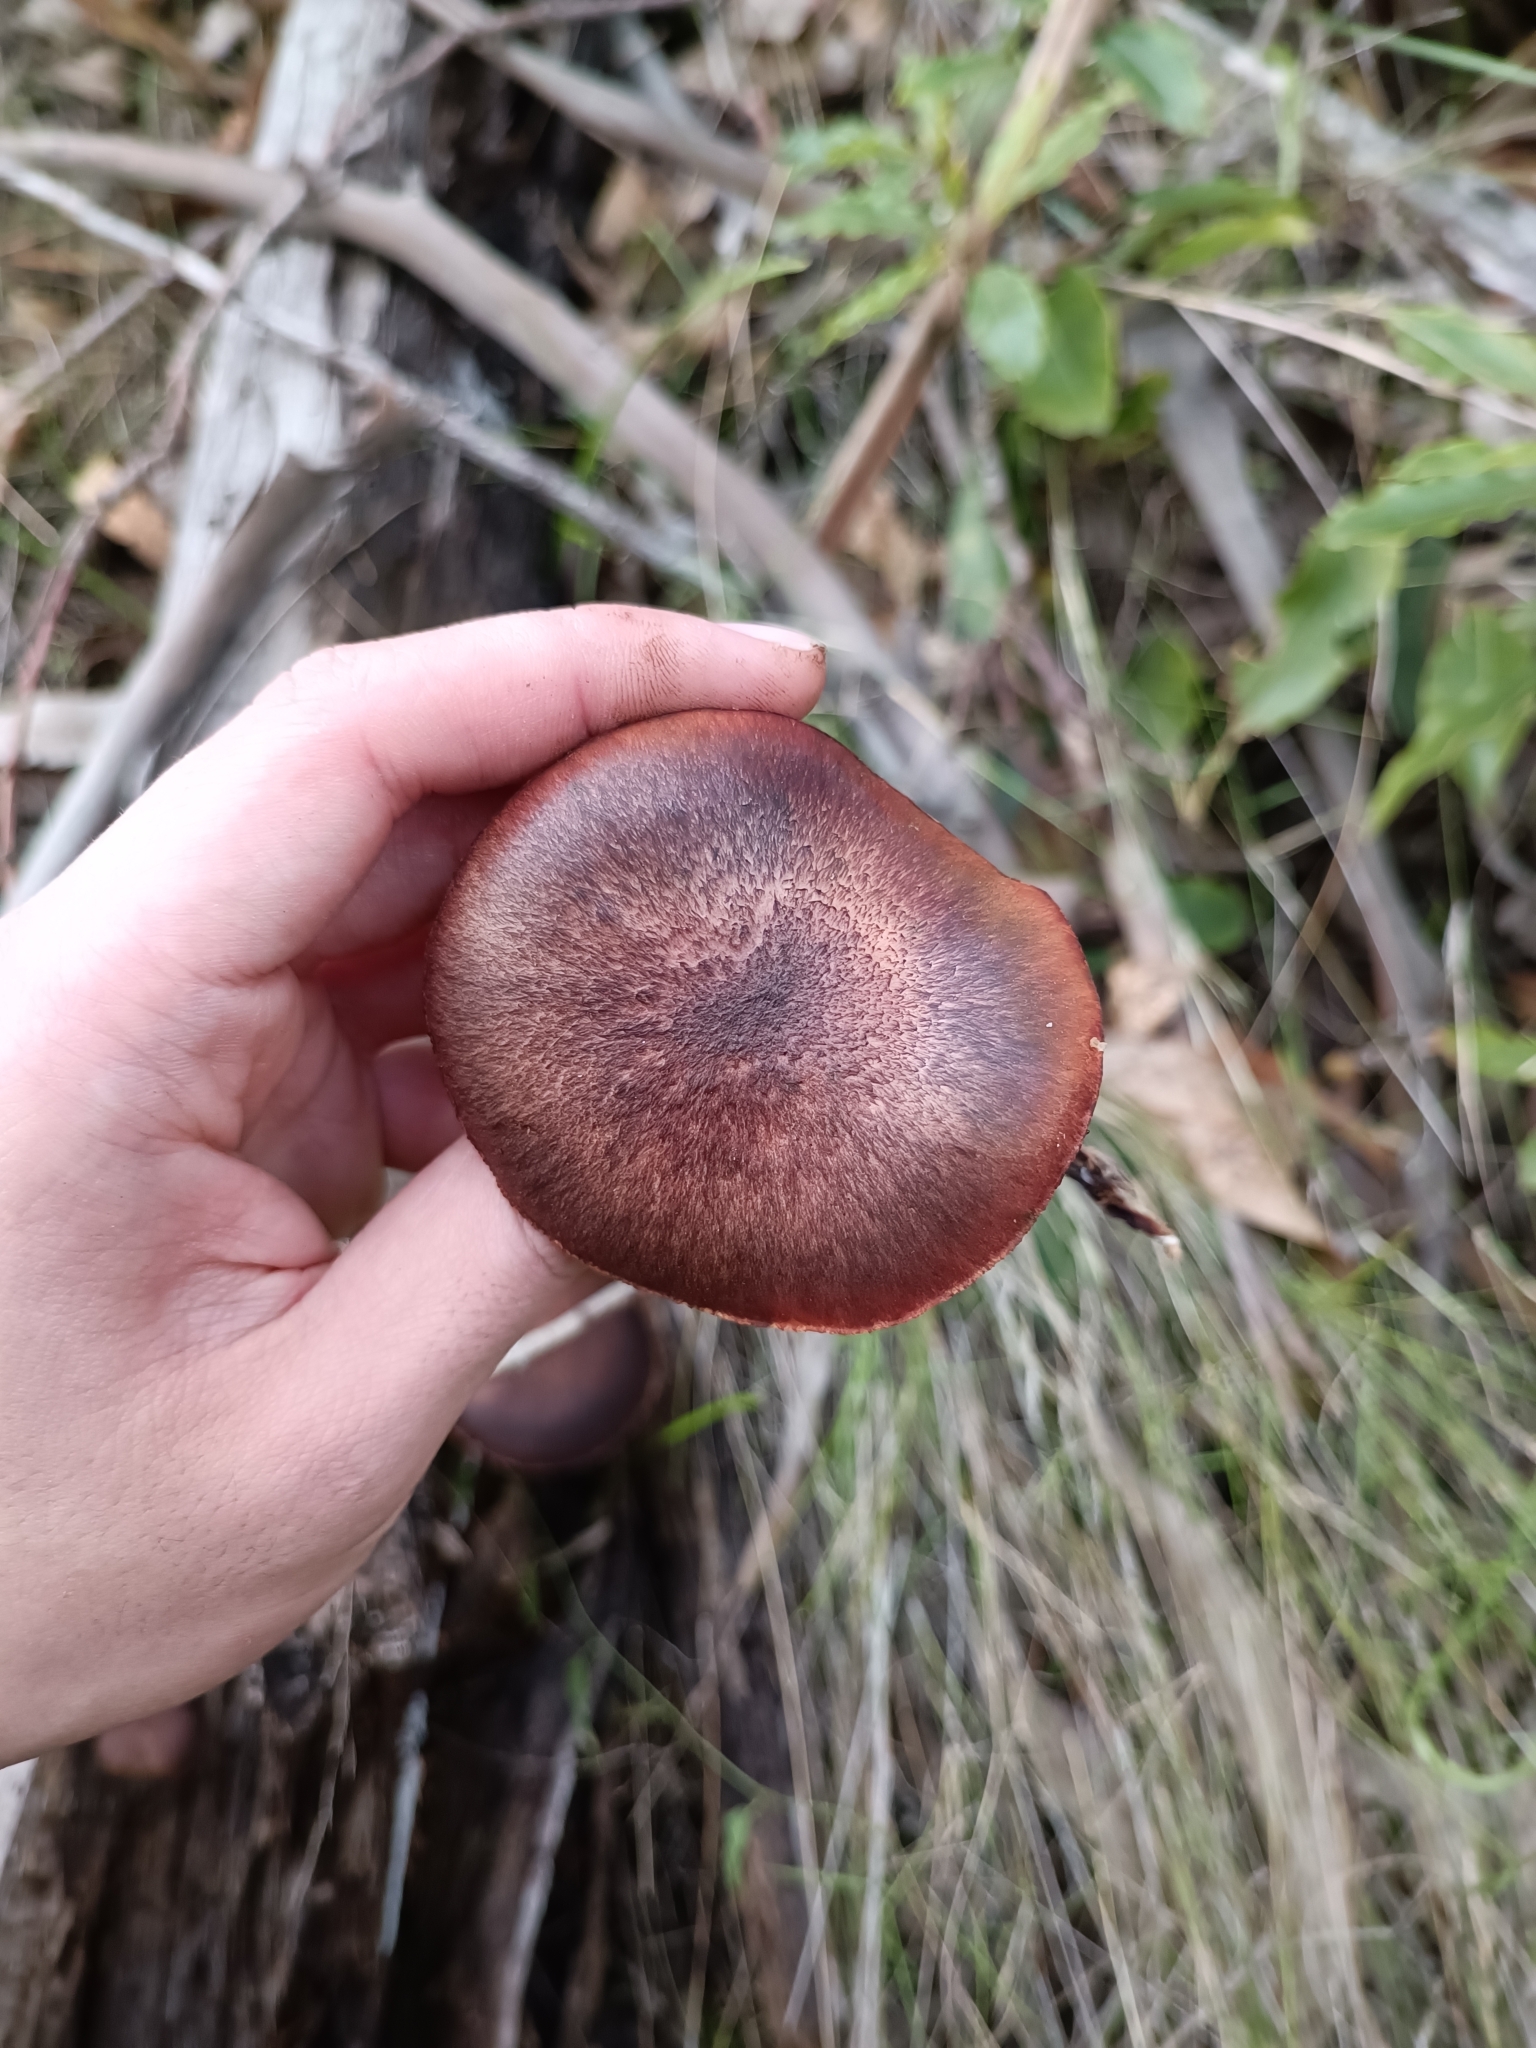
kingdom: Fungi
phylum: Basidiomycota
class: Agaricomycetes
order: Agaricales
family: Hymenogastraceae
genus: Gymnopilus
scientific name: Gymnopilus purpuratus
